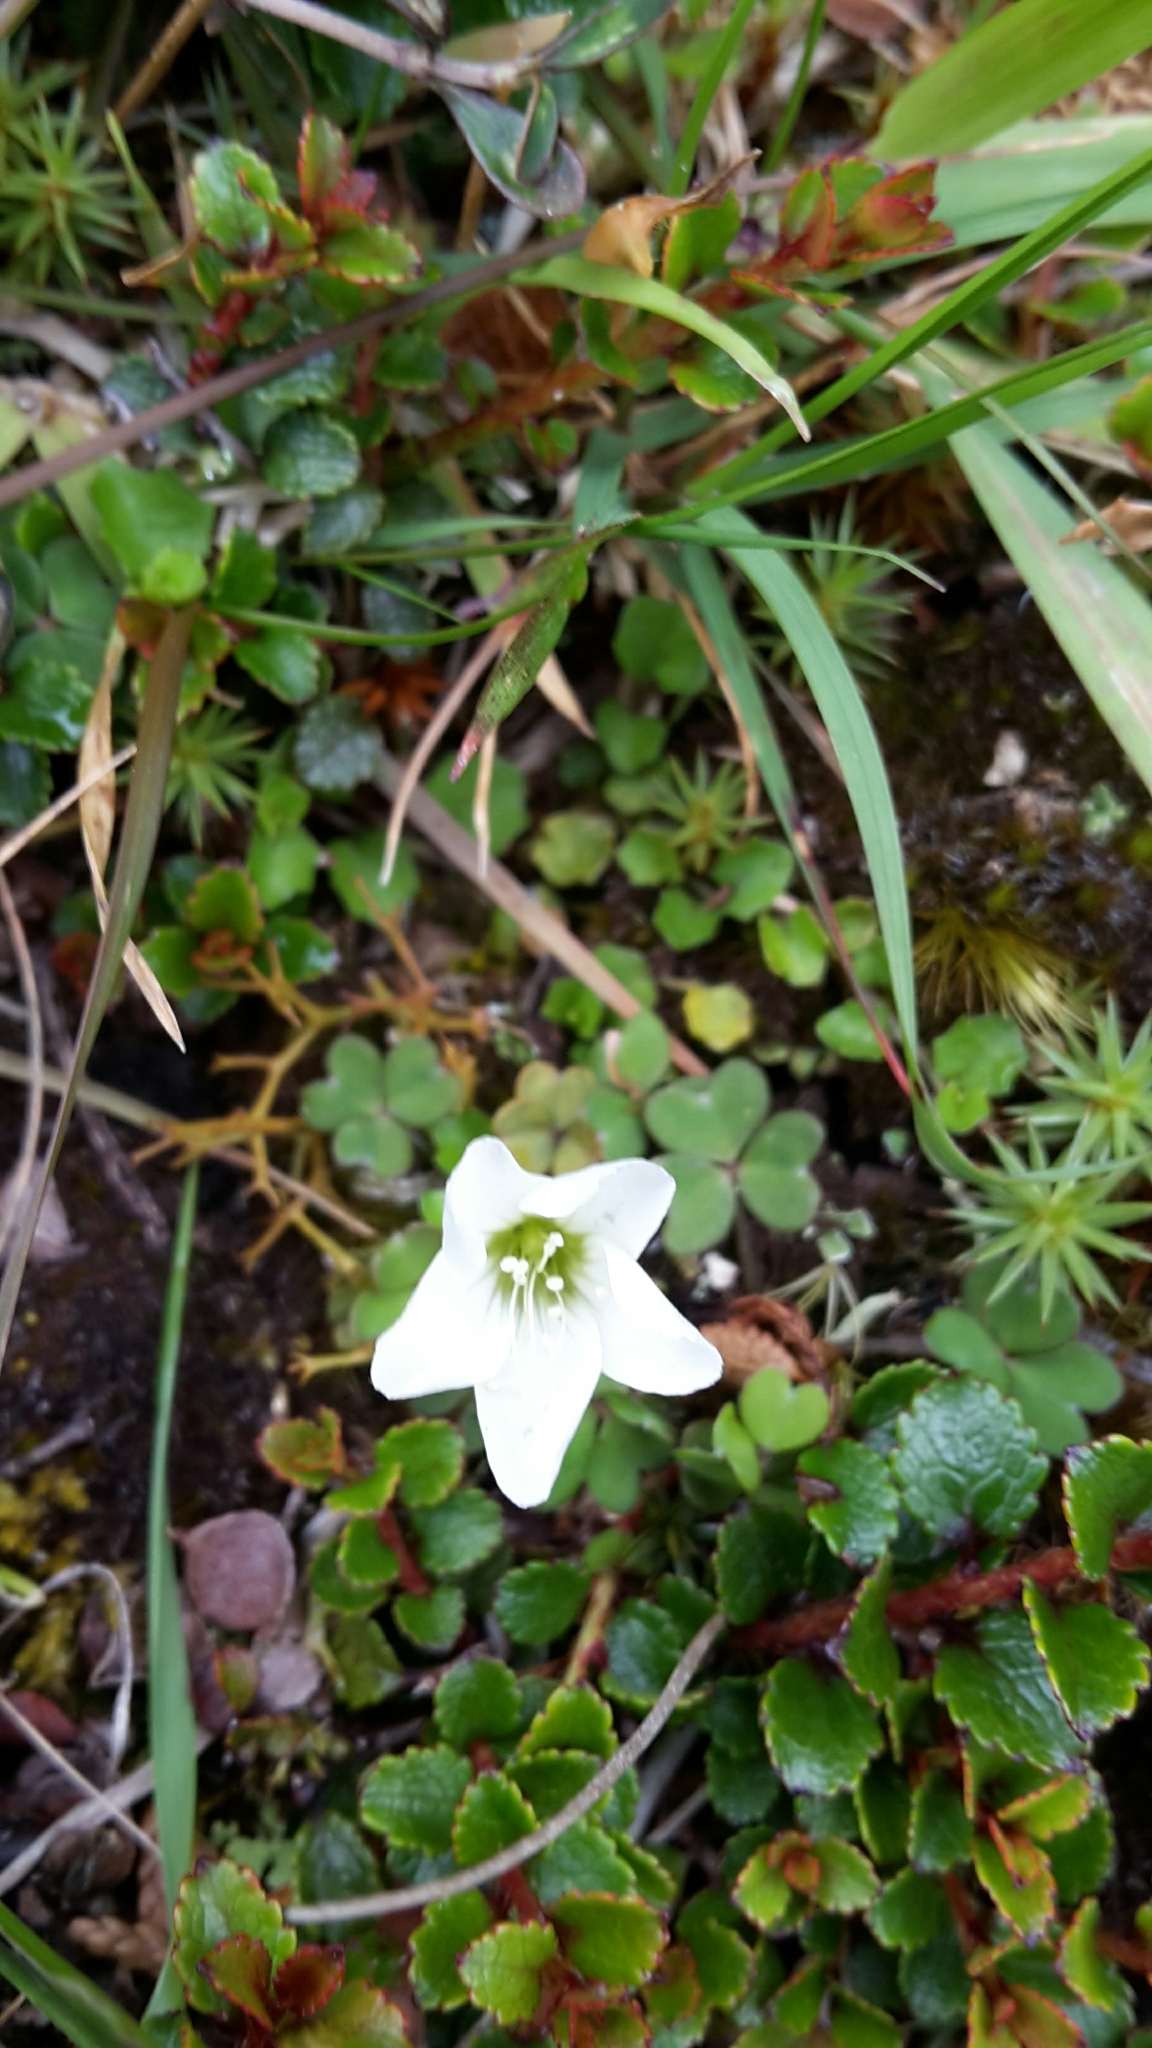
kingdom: Plantae
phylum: Tracheophyta
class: Magnoliopsida
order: Oxalidales
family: Oxalidaceae
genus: Oxalis
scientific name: Oxalis magellanica
